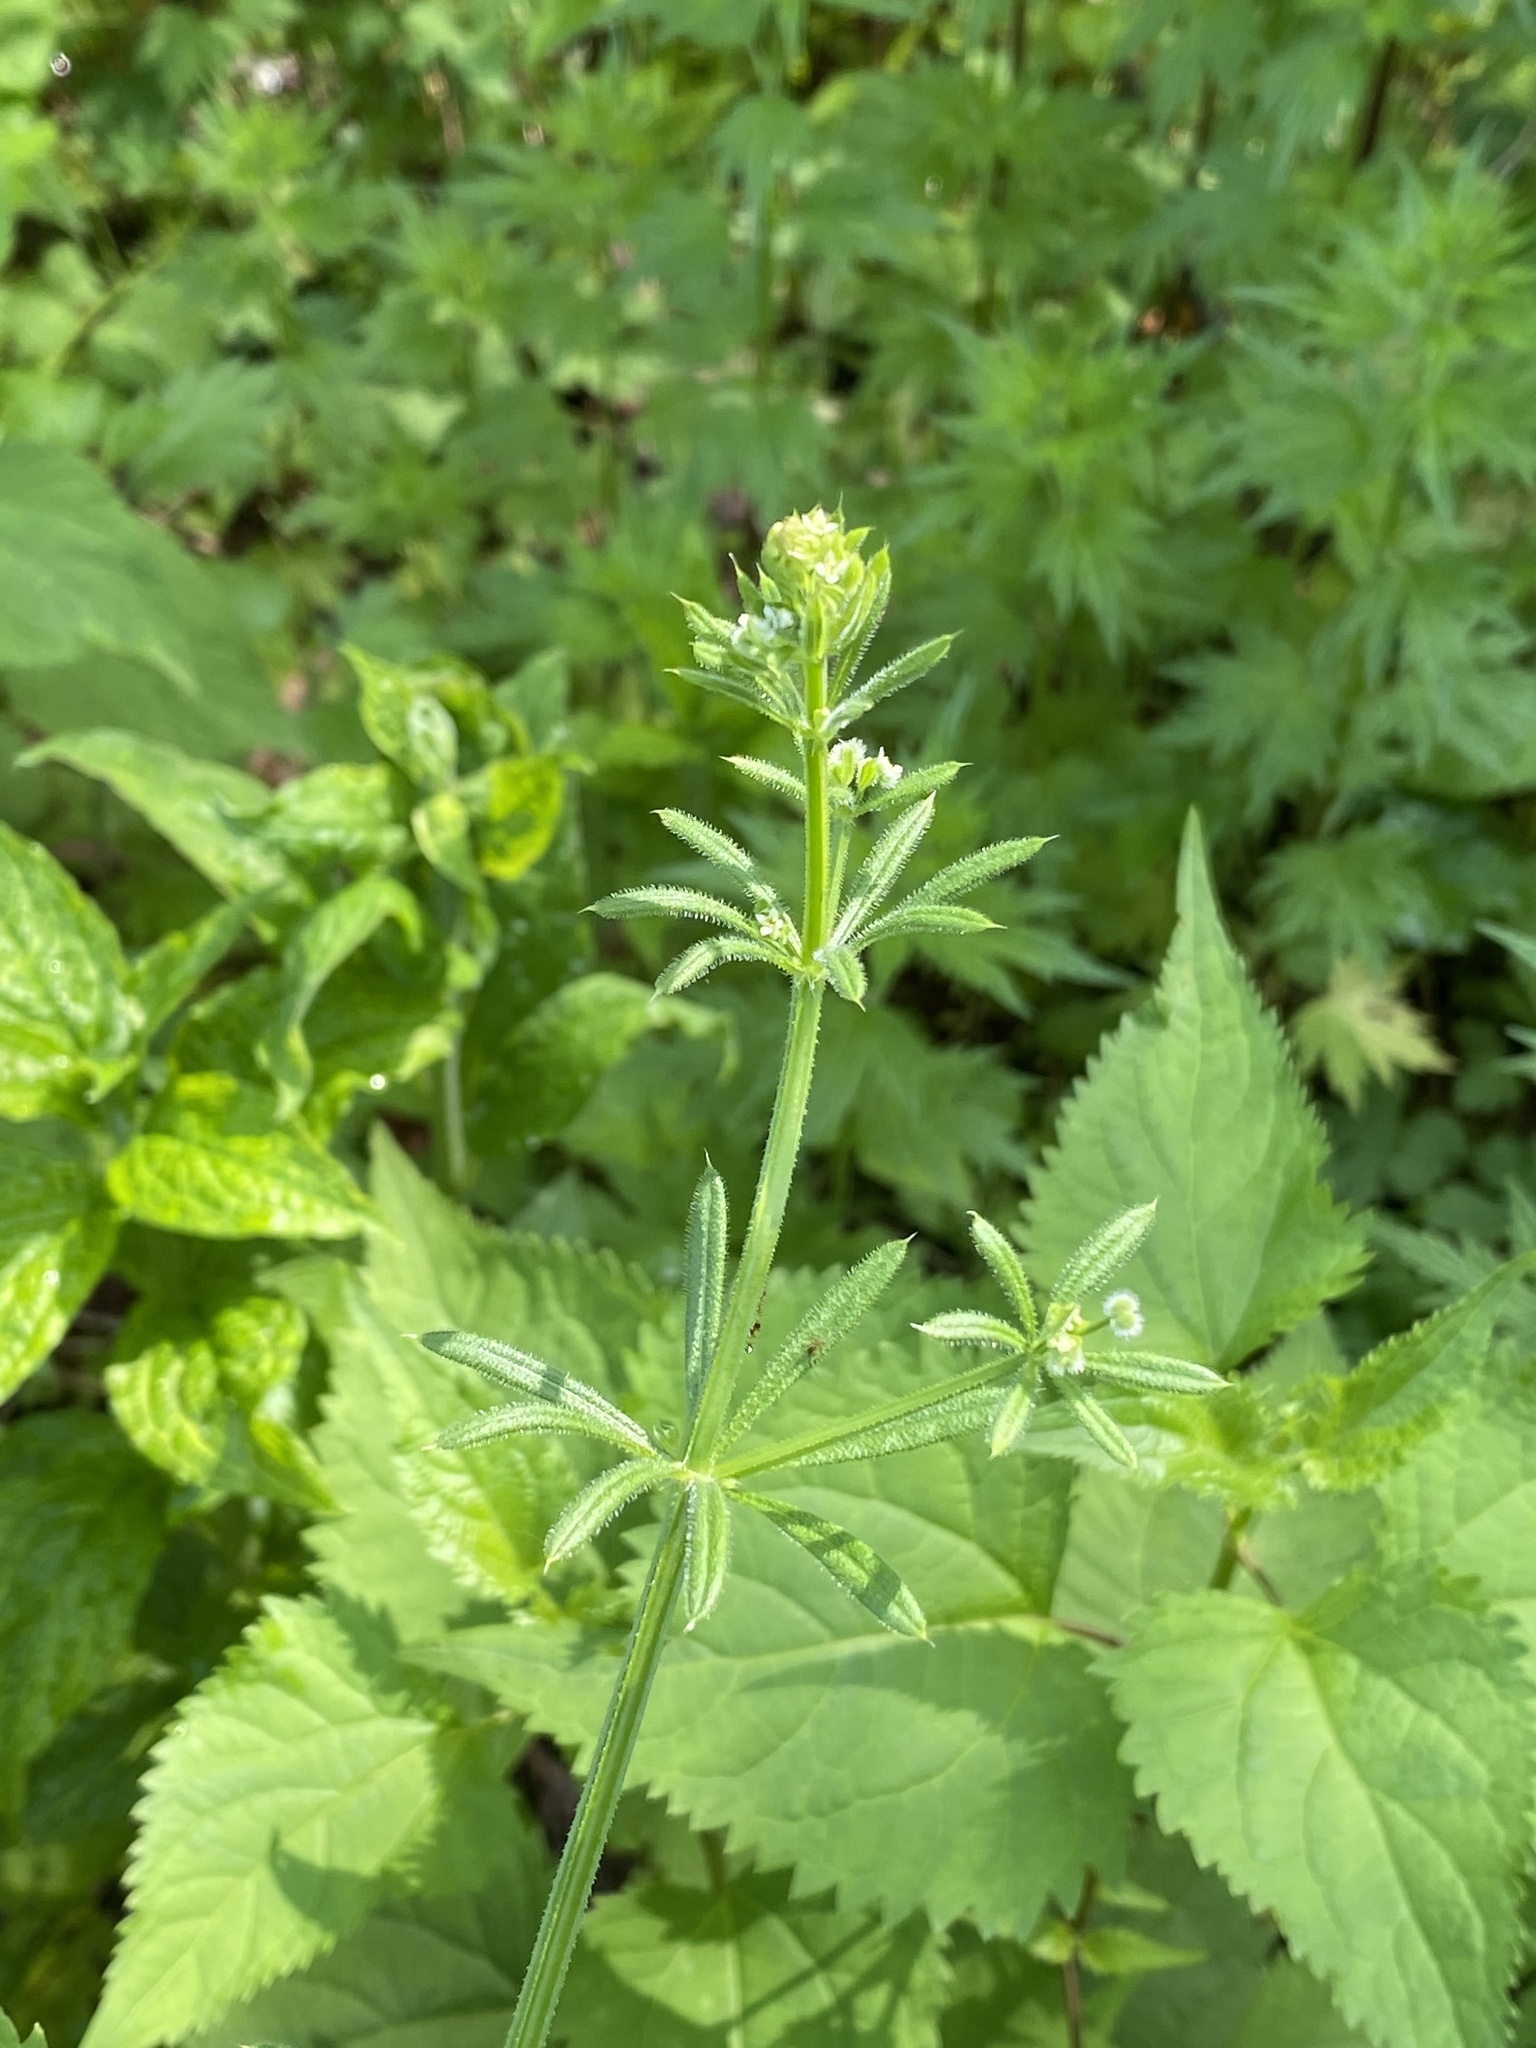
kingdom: Plantae
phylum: Tracheophyta
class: Magnoliopsida
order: Gentianales
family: Rubiaceae
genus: Galium
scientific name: Galium aparine
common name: Cleavers
